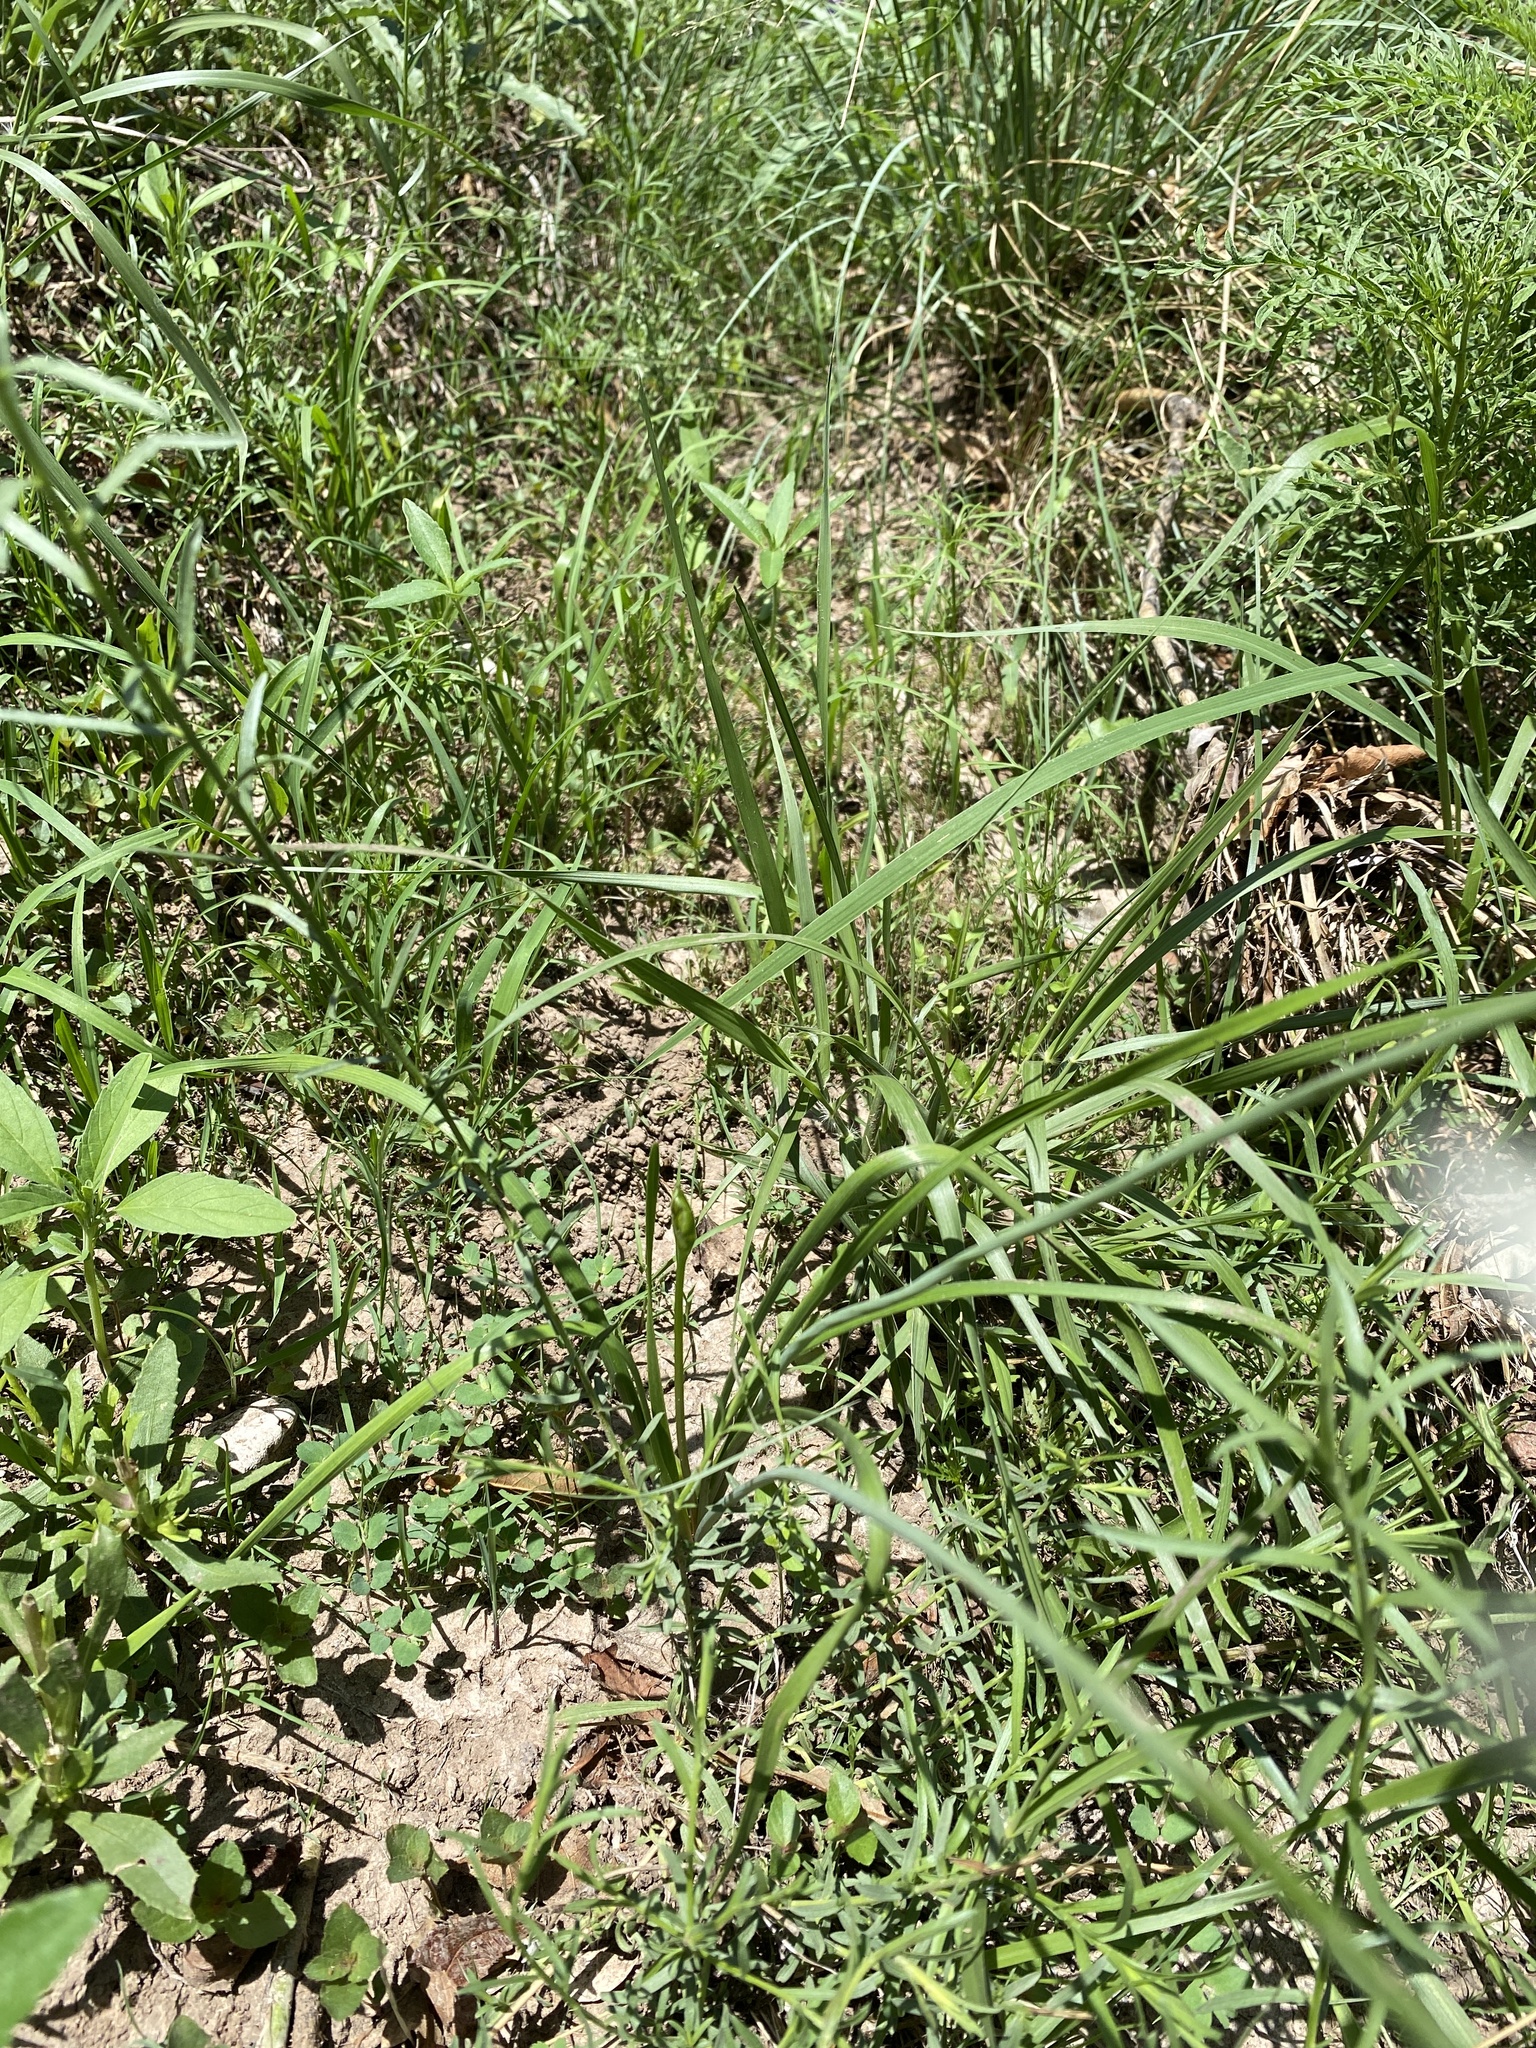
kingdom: Plantae
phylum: Tracheophyta
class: Liliopsida
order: Asparagales
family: Amaryllidaceae
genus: Nothoscordum
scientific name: Nothoscordum bivalve
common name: Crow-poison
